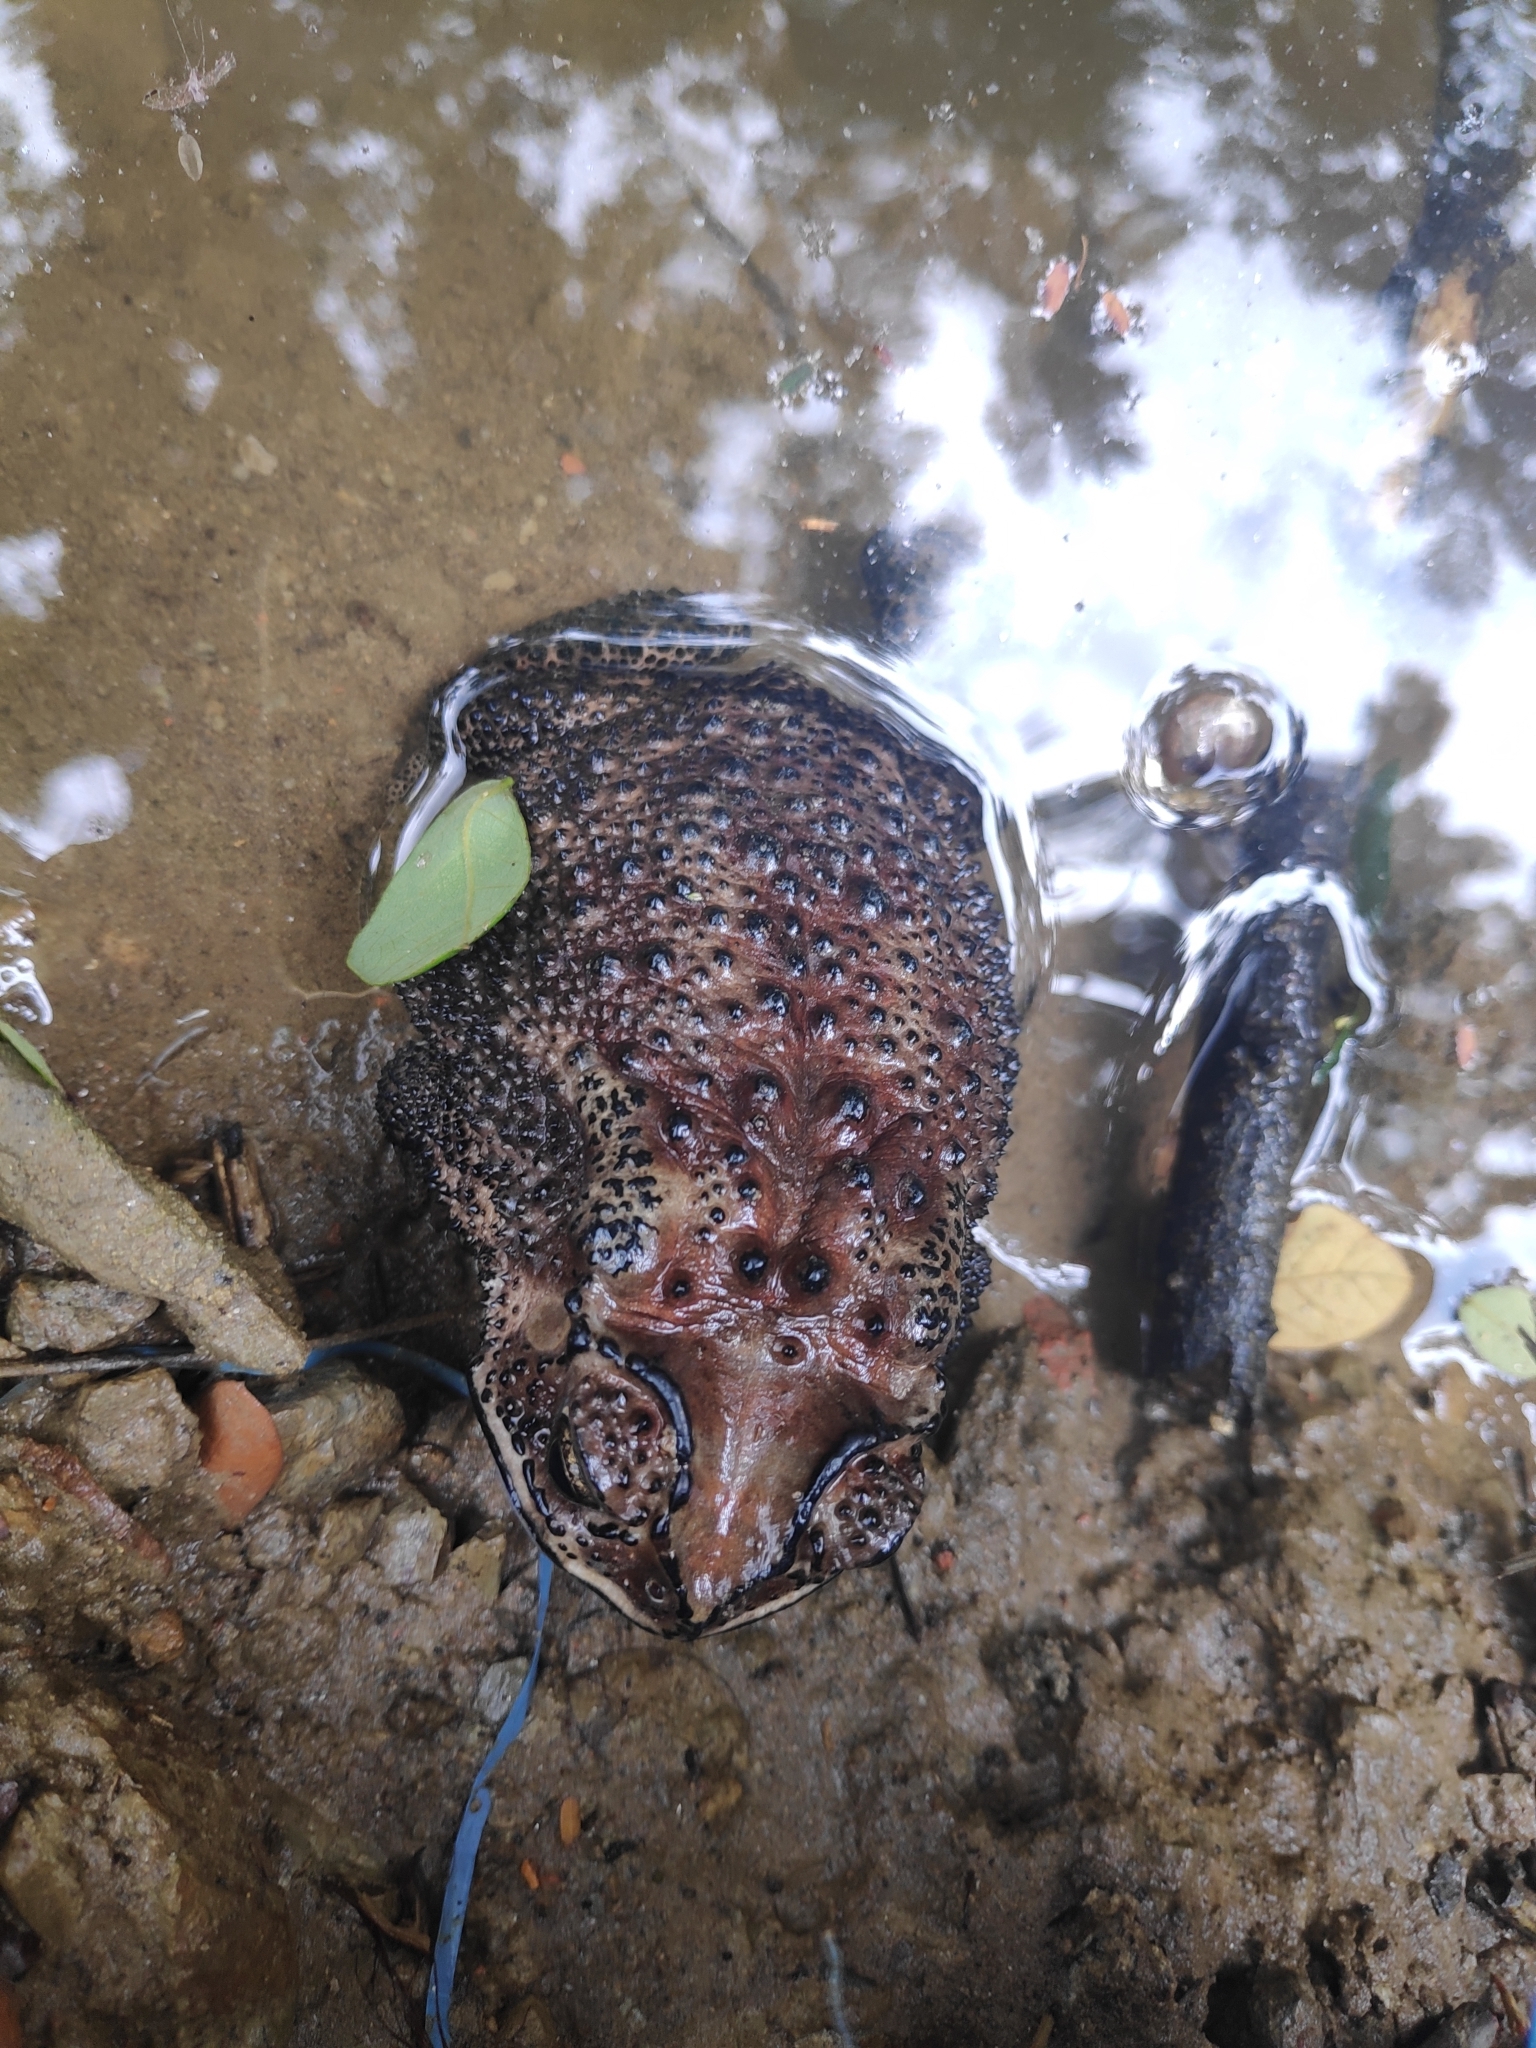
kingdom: Animalia
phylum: Chordata
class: Amphibia
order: Anura
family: Bufonidae
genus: Duttaphrynus
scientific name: Duttaphrynus melanostictus
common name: Common sunda toad
